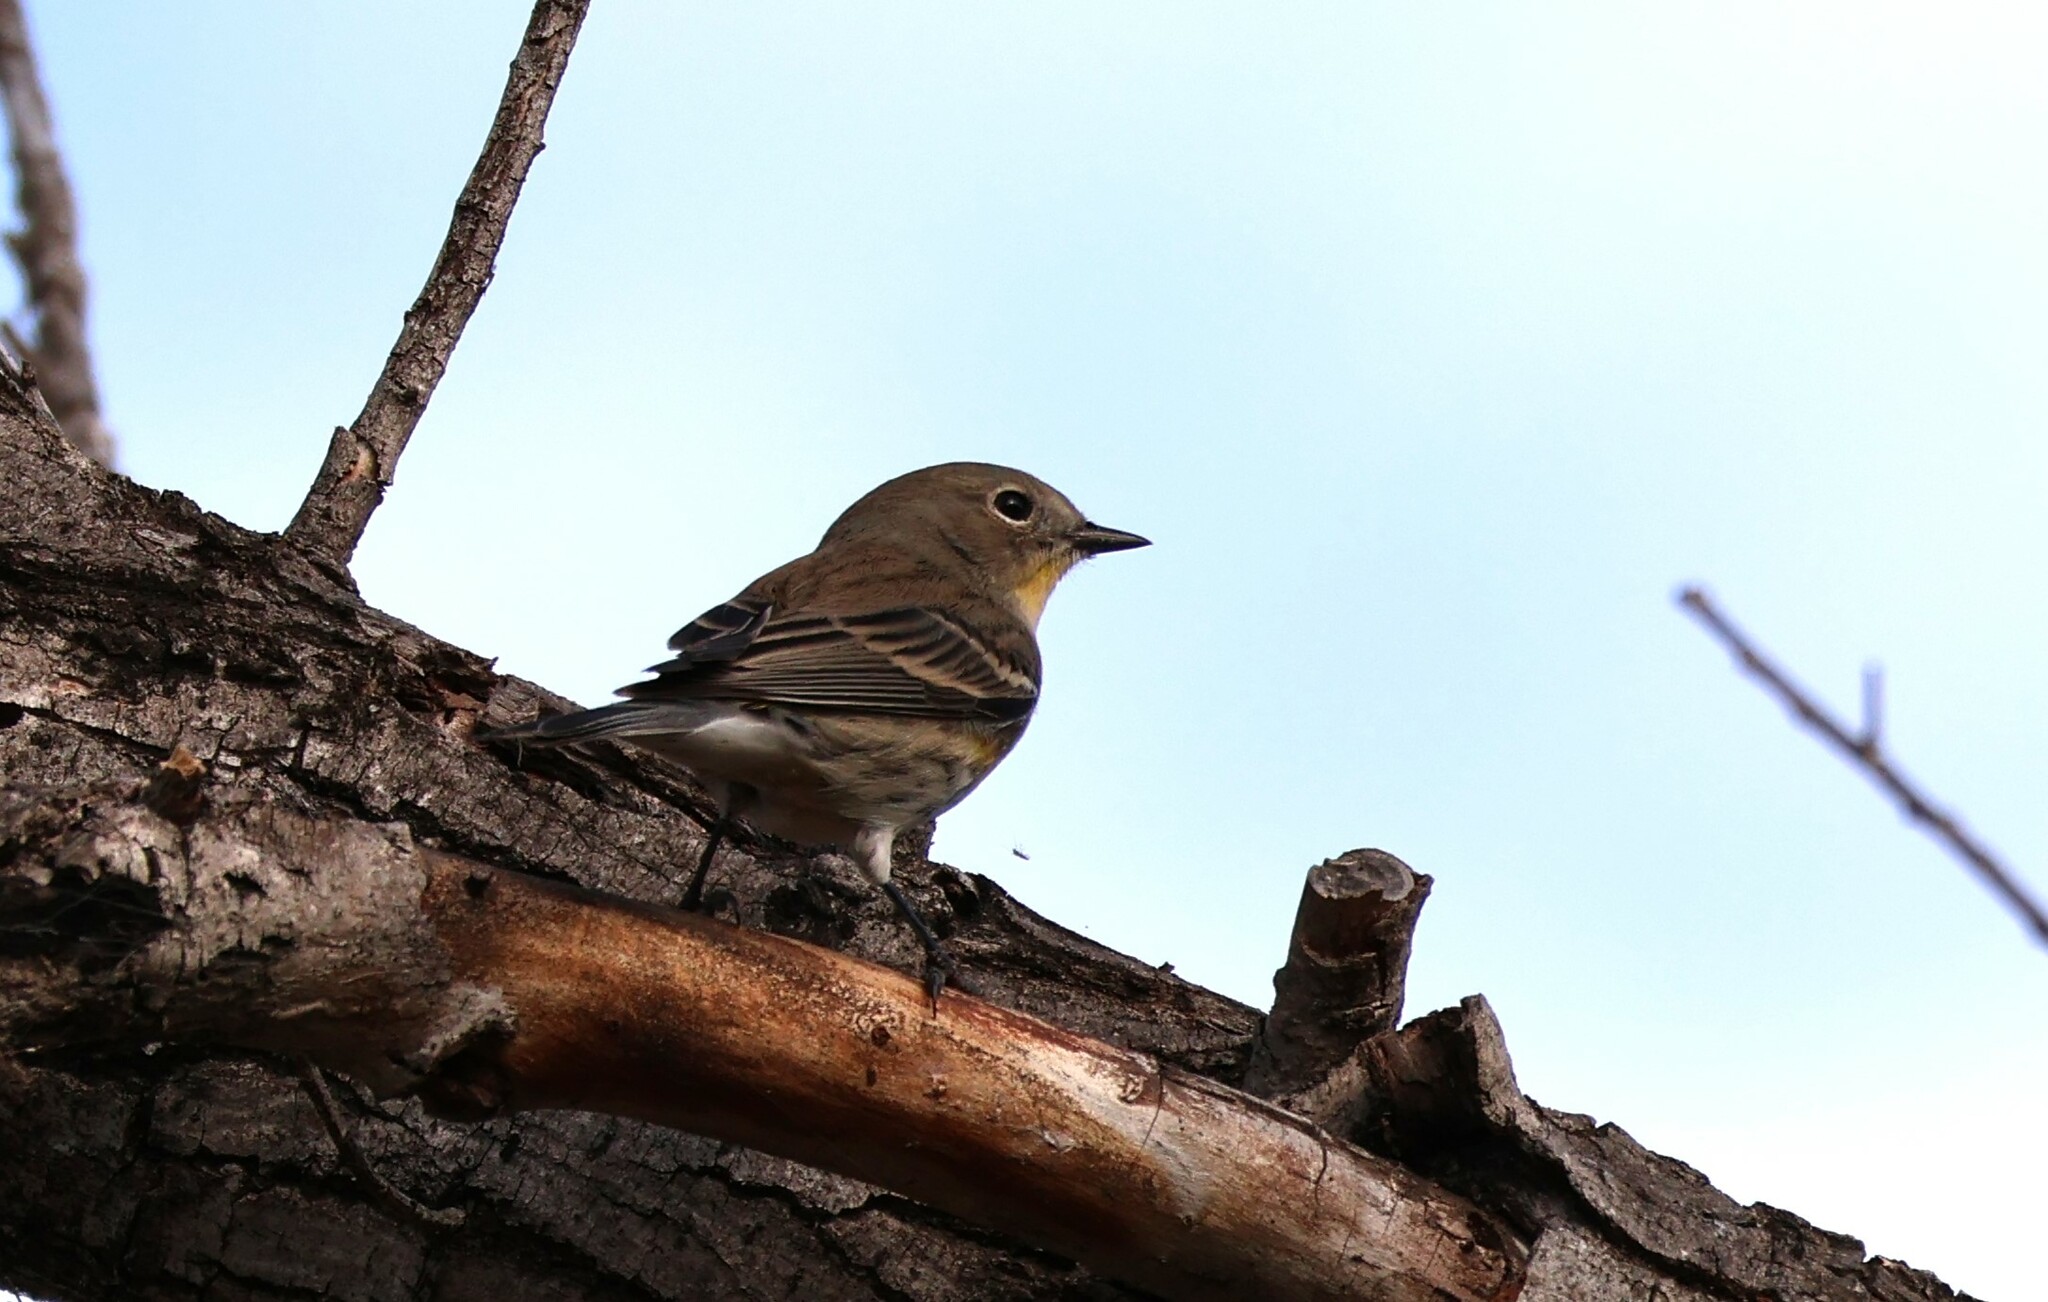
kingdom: Animalia
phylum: Chordata
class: Aves
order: Passeriformes
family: Parulidae
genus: Setophaga
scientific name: Setophaga auduboni
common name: Audubon's warbler
